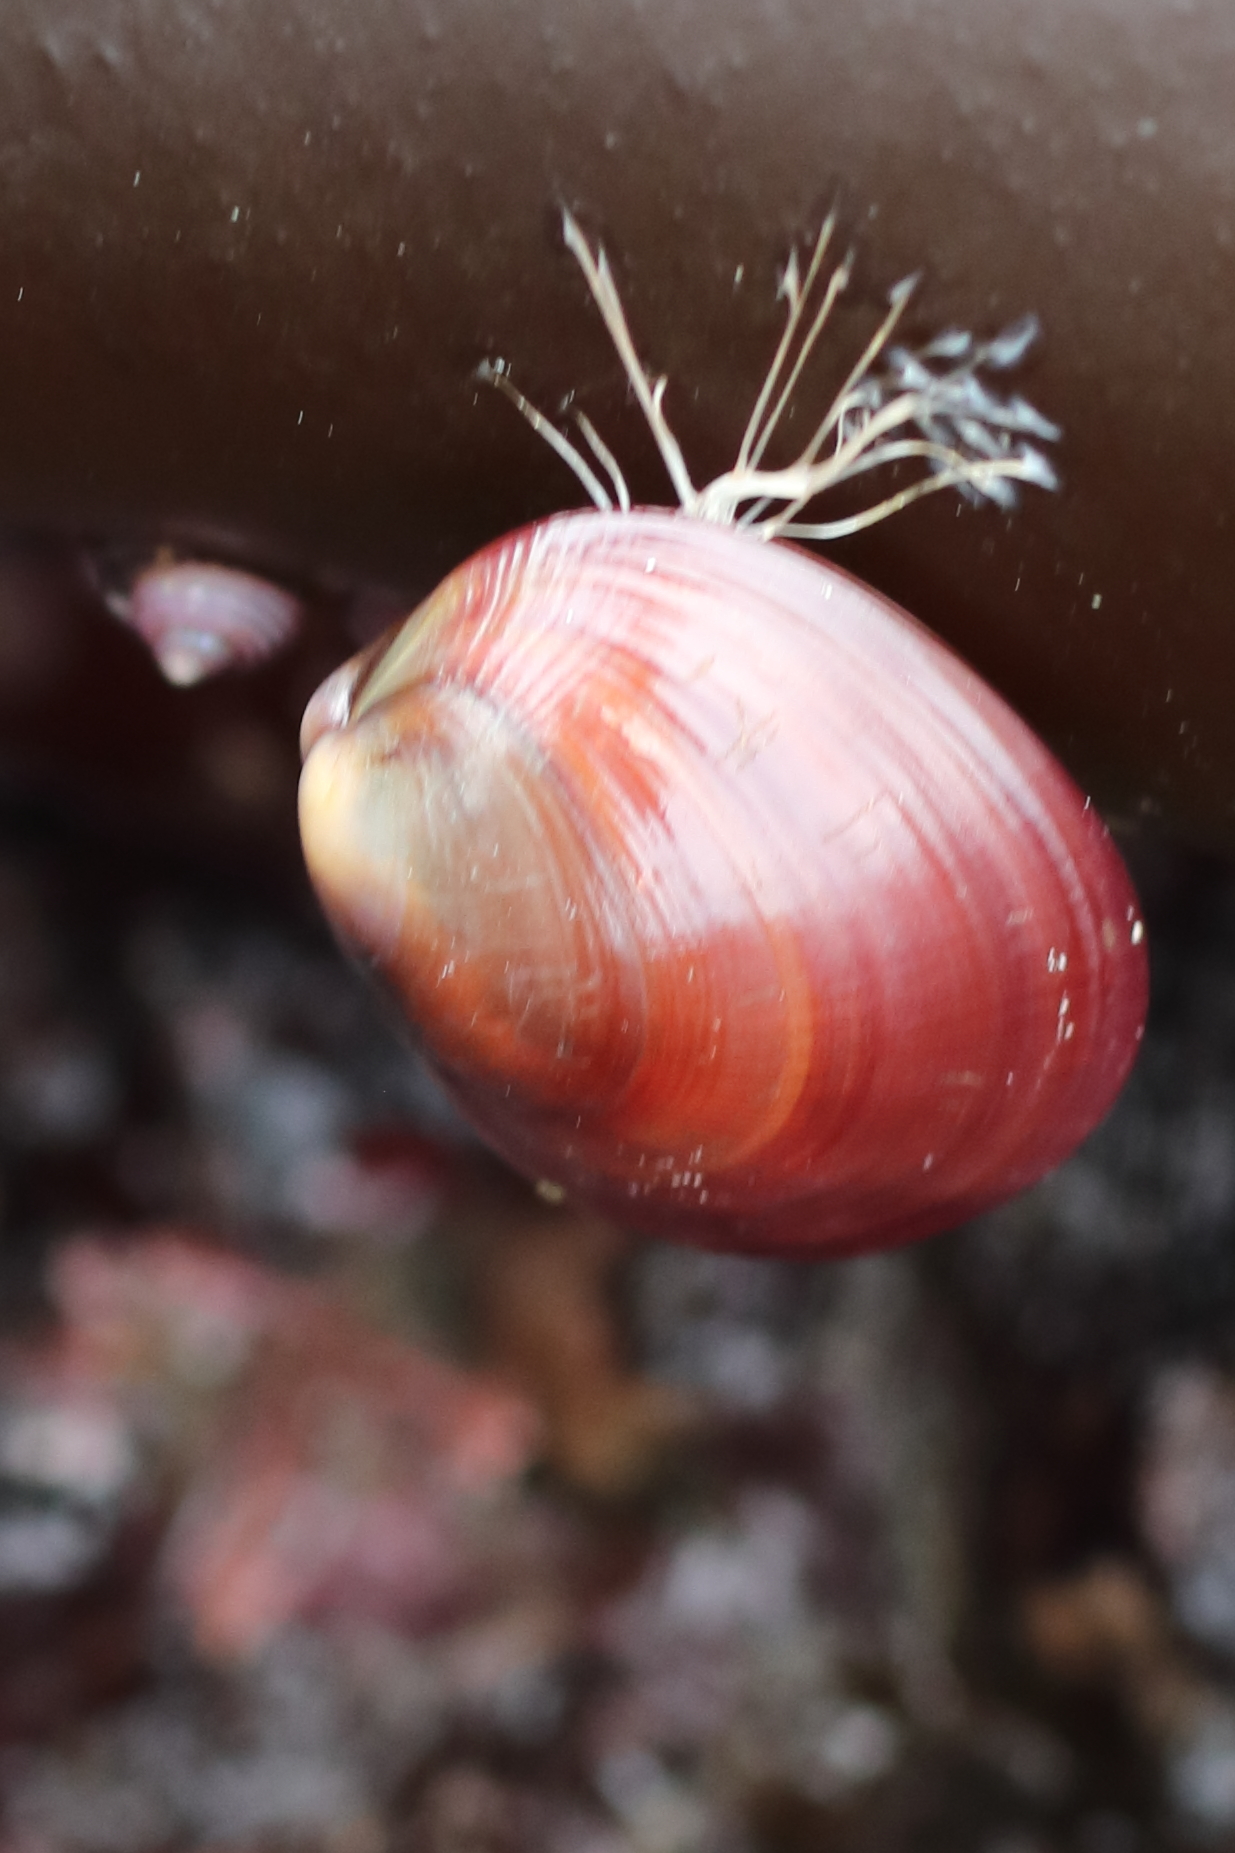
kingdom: Animalia
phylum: Mollusca
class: Bivalvia
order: Mytilida
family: Mytilidae
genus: Musculus
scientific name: Musculus discors
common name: Green crenella
